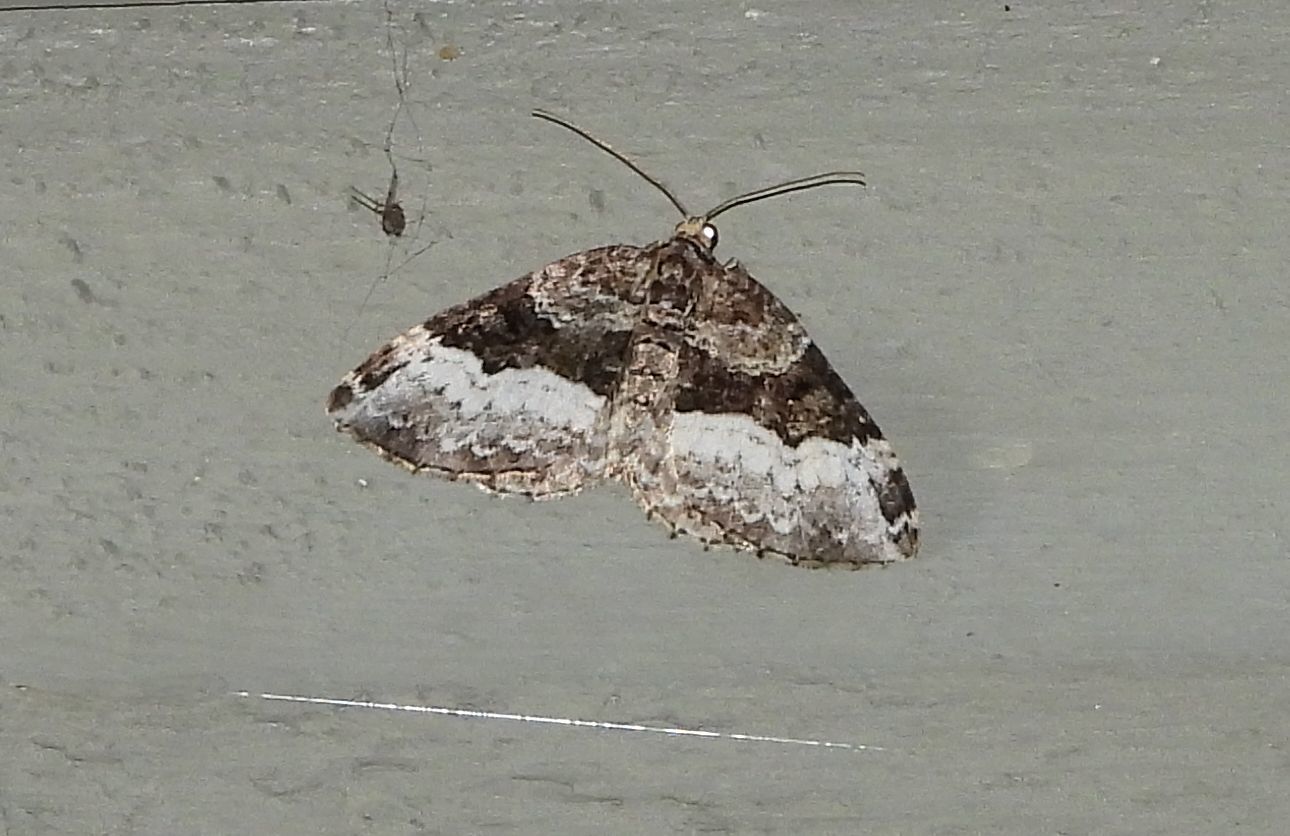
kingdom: Animalia
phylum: Arthropoda
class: Insecta
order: Lepidoptera
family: Geometridae
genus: Euphyia
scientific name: Euphyia intermediata
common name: Sharp-angled carpet
